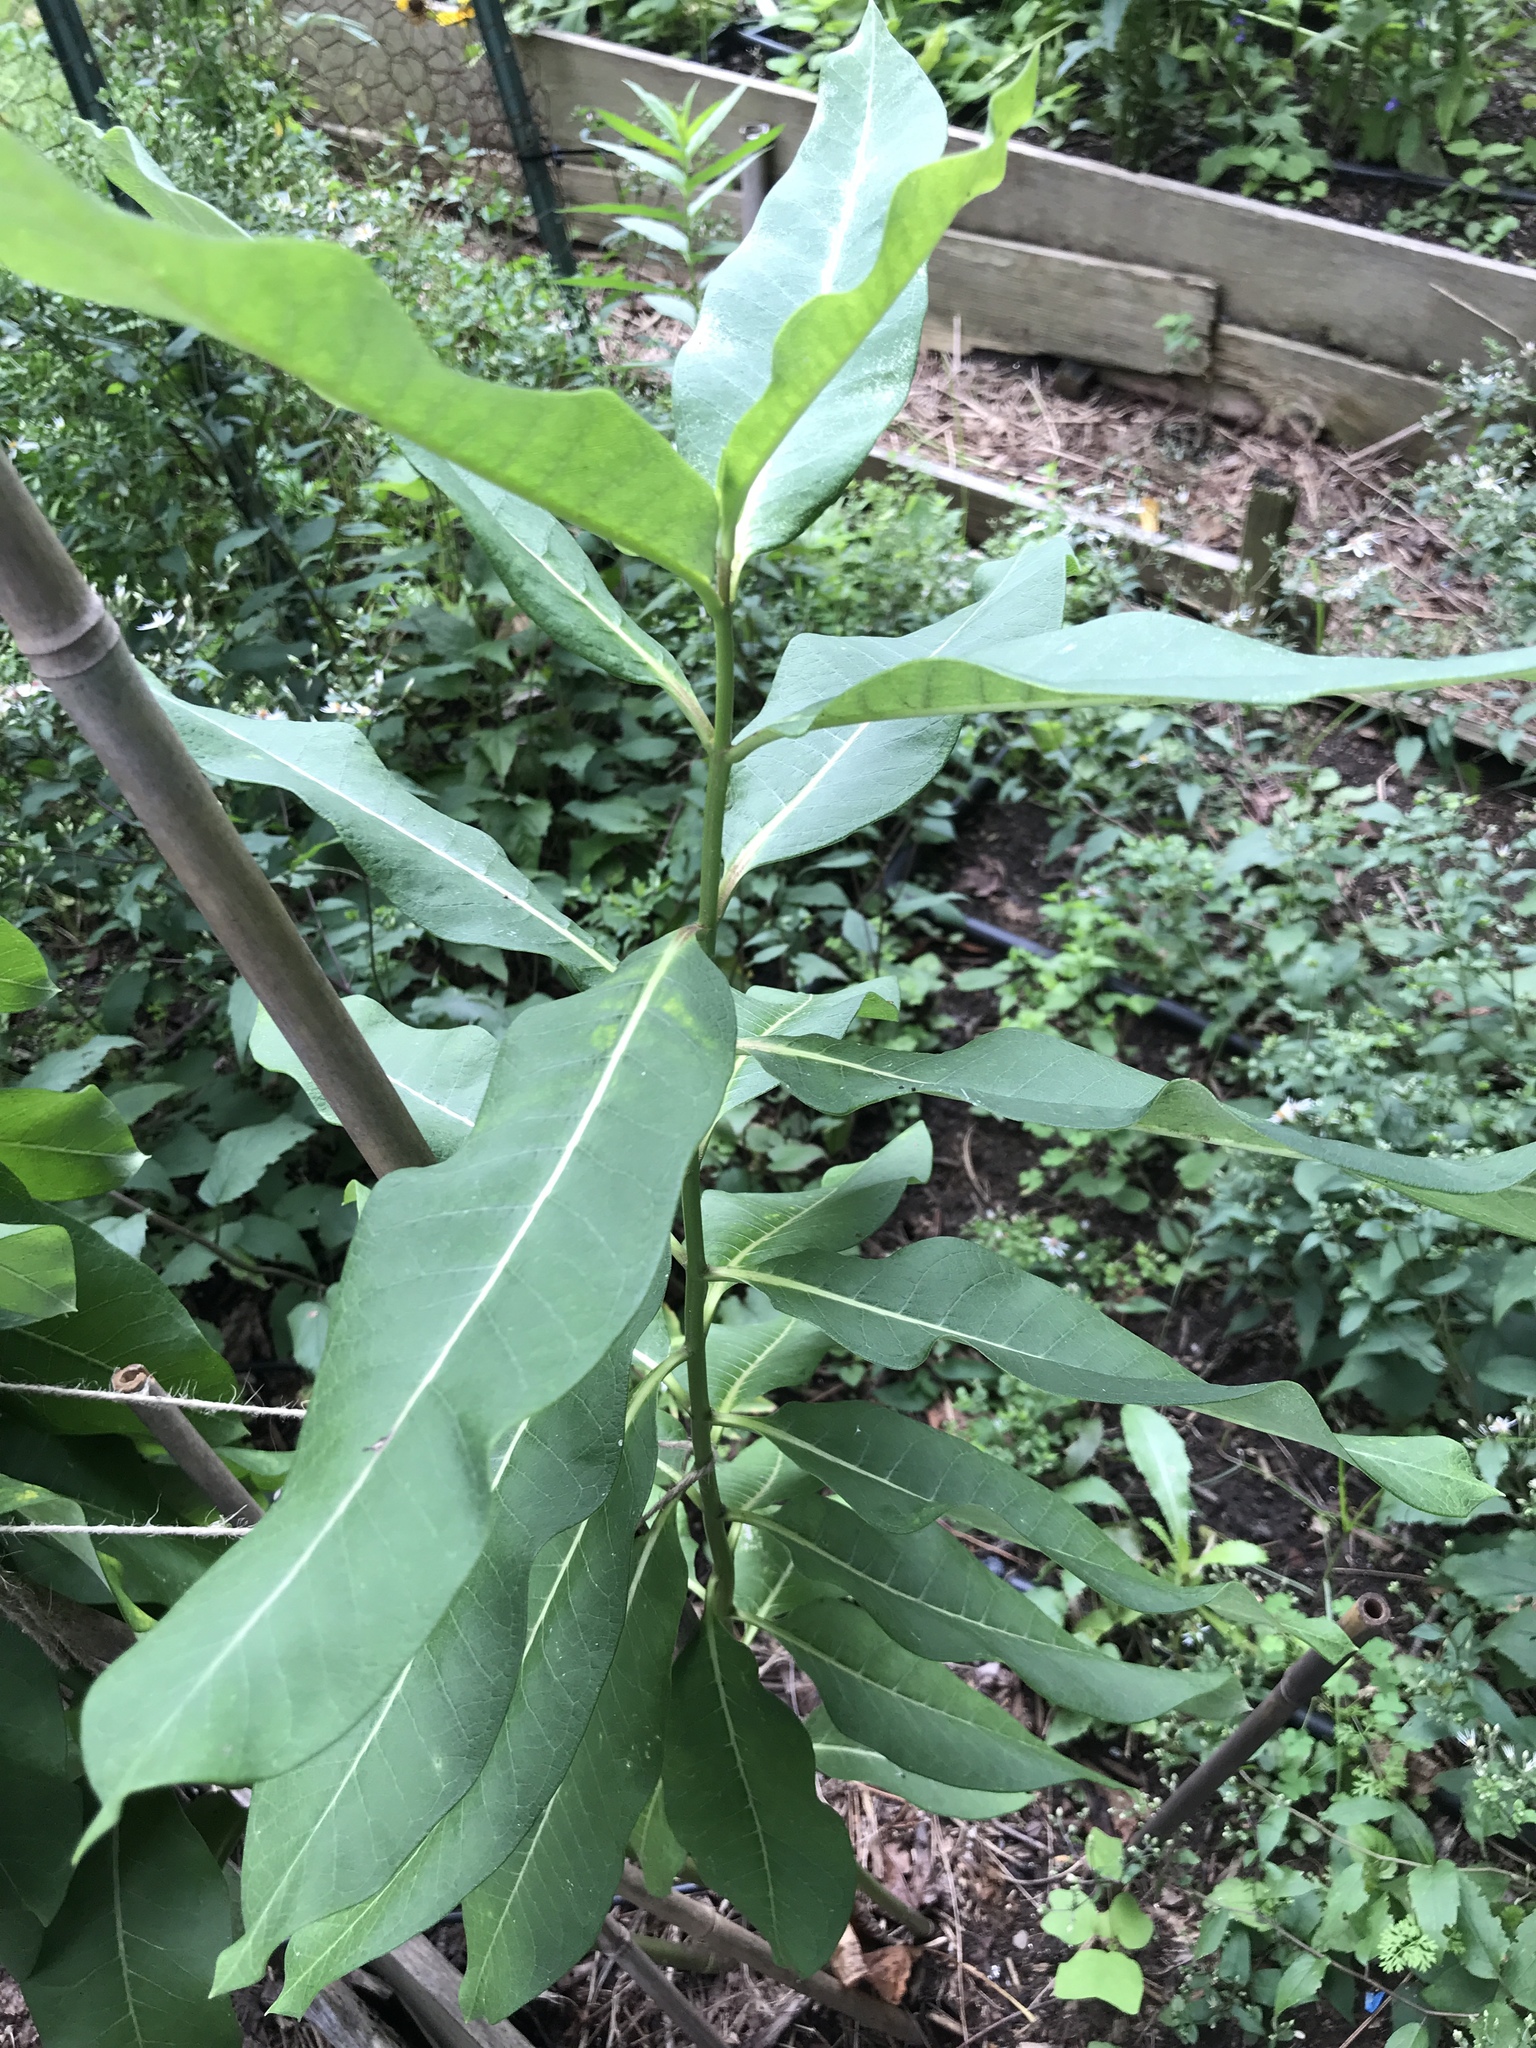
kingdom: Animalia
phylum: Arthropoda
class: Insecta
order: Lepidoptera
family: Nymphalidae
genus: Danaus
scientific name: Danaus plexippus
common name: Monarch
